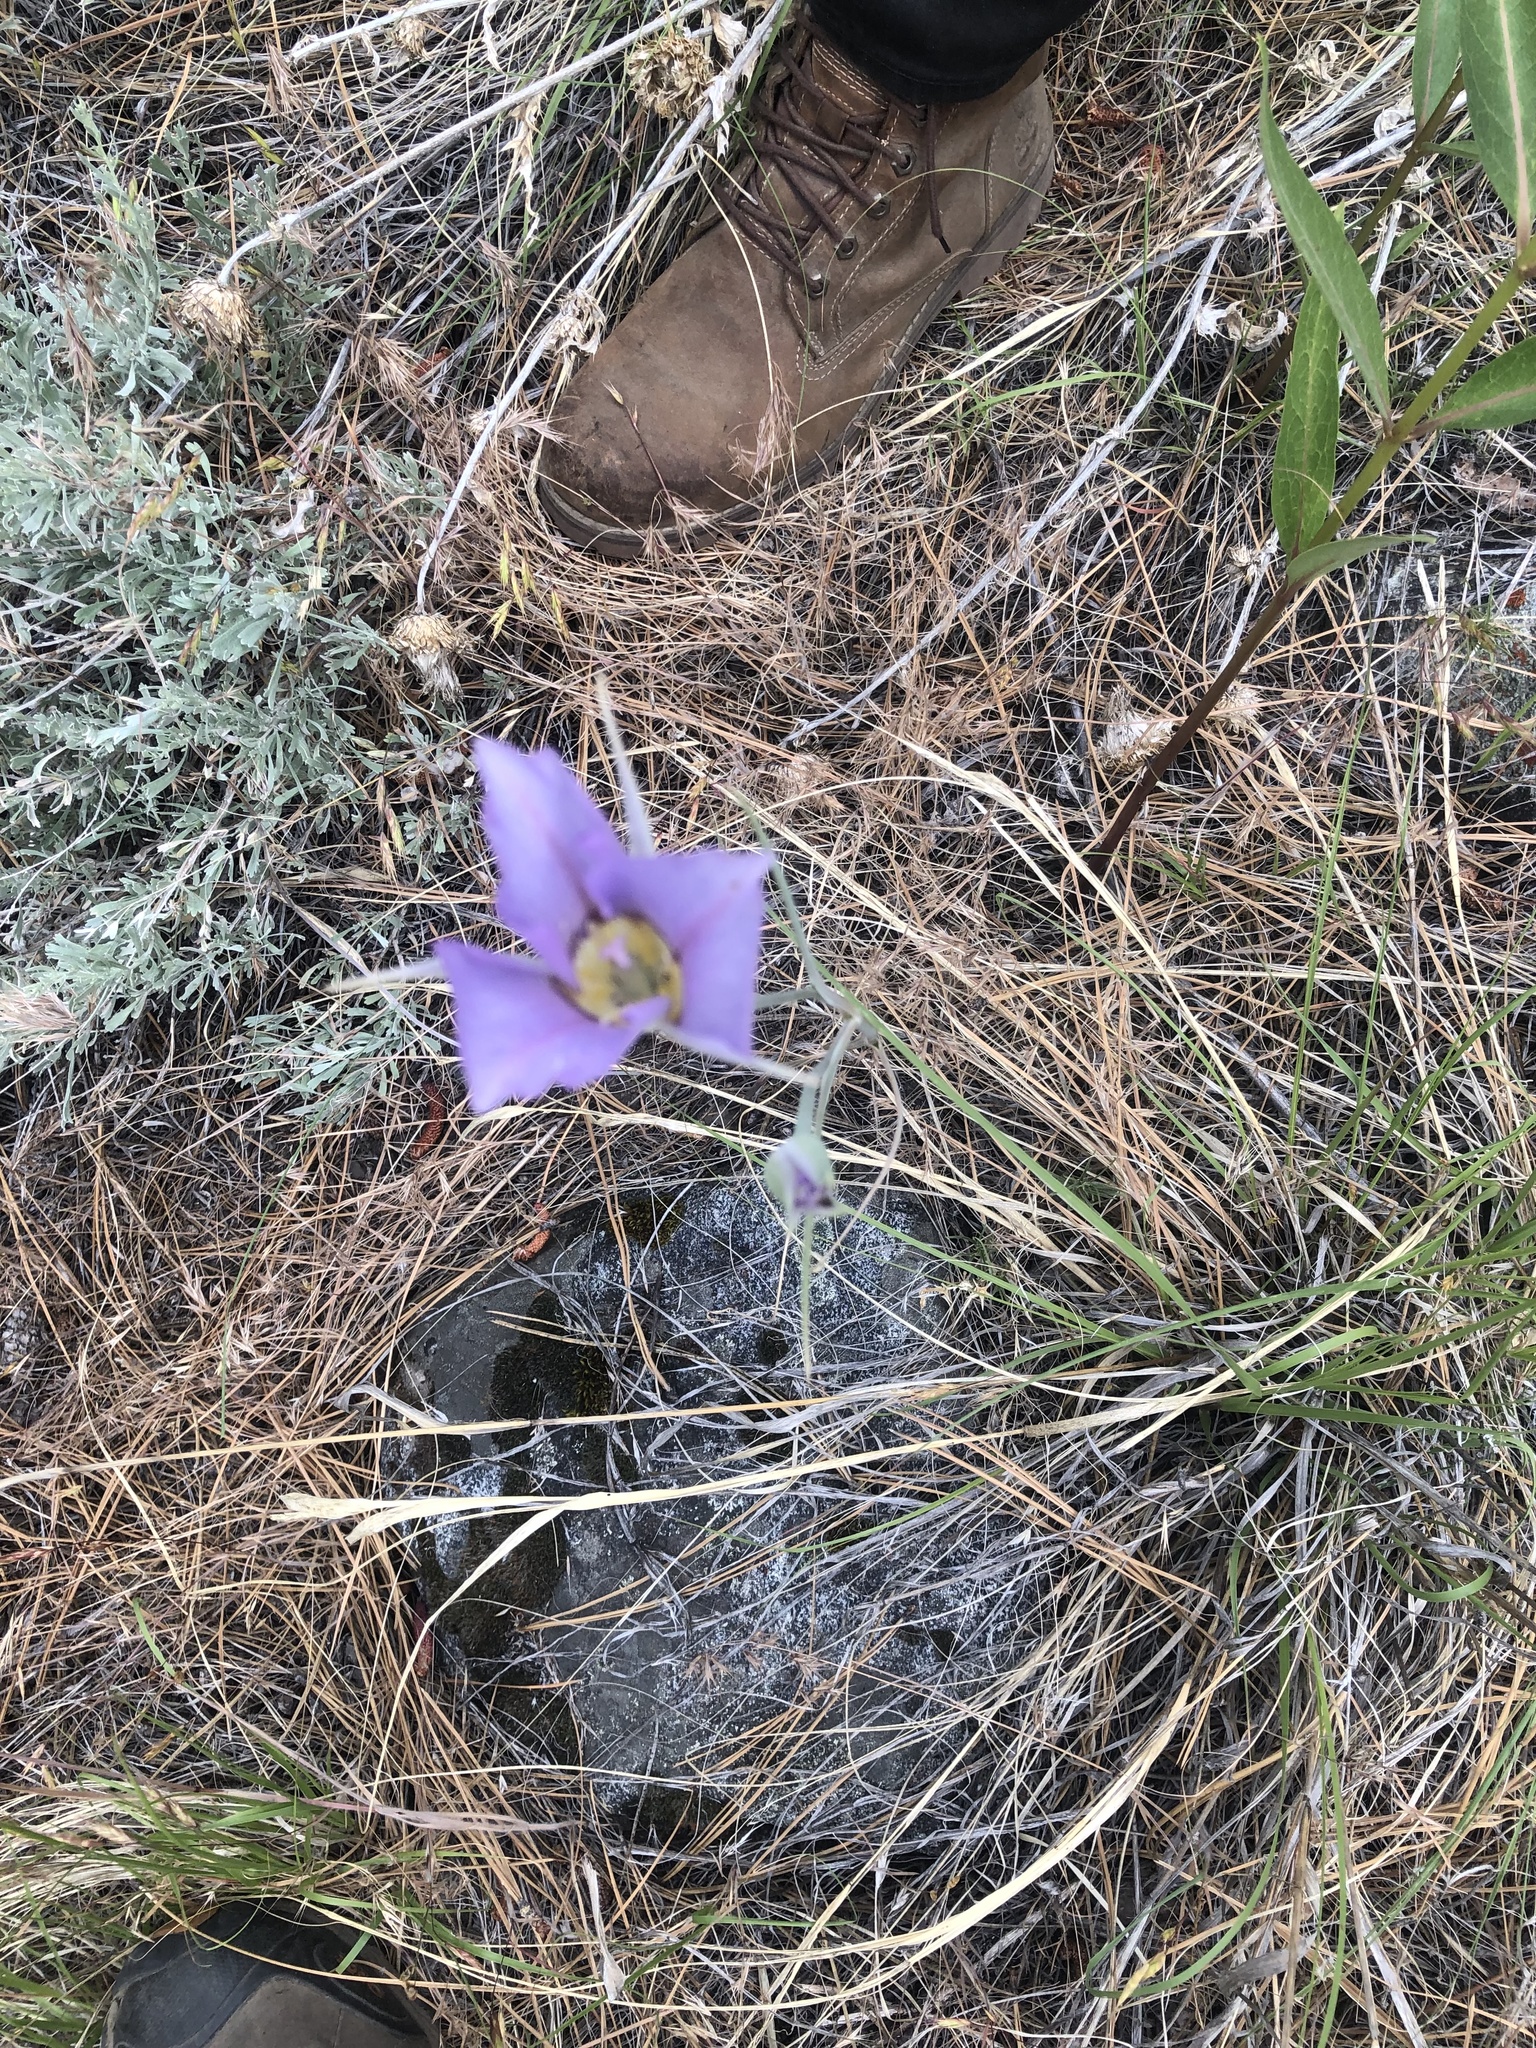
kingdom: Plantae
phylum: Tracheophyta
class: Liliopsida
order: Liliales
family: Liliaceae
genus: Calochortus
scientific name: Calochortus macrocarpus
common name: Green-band mariposa lily
